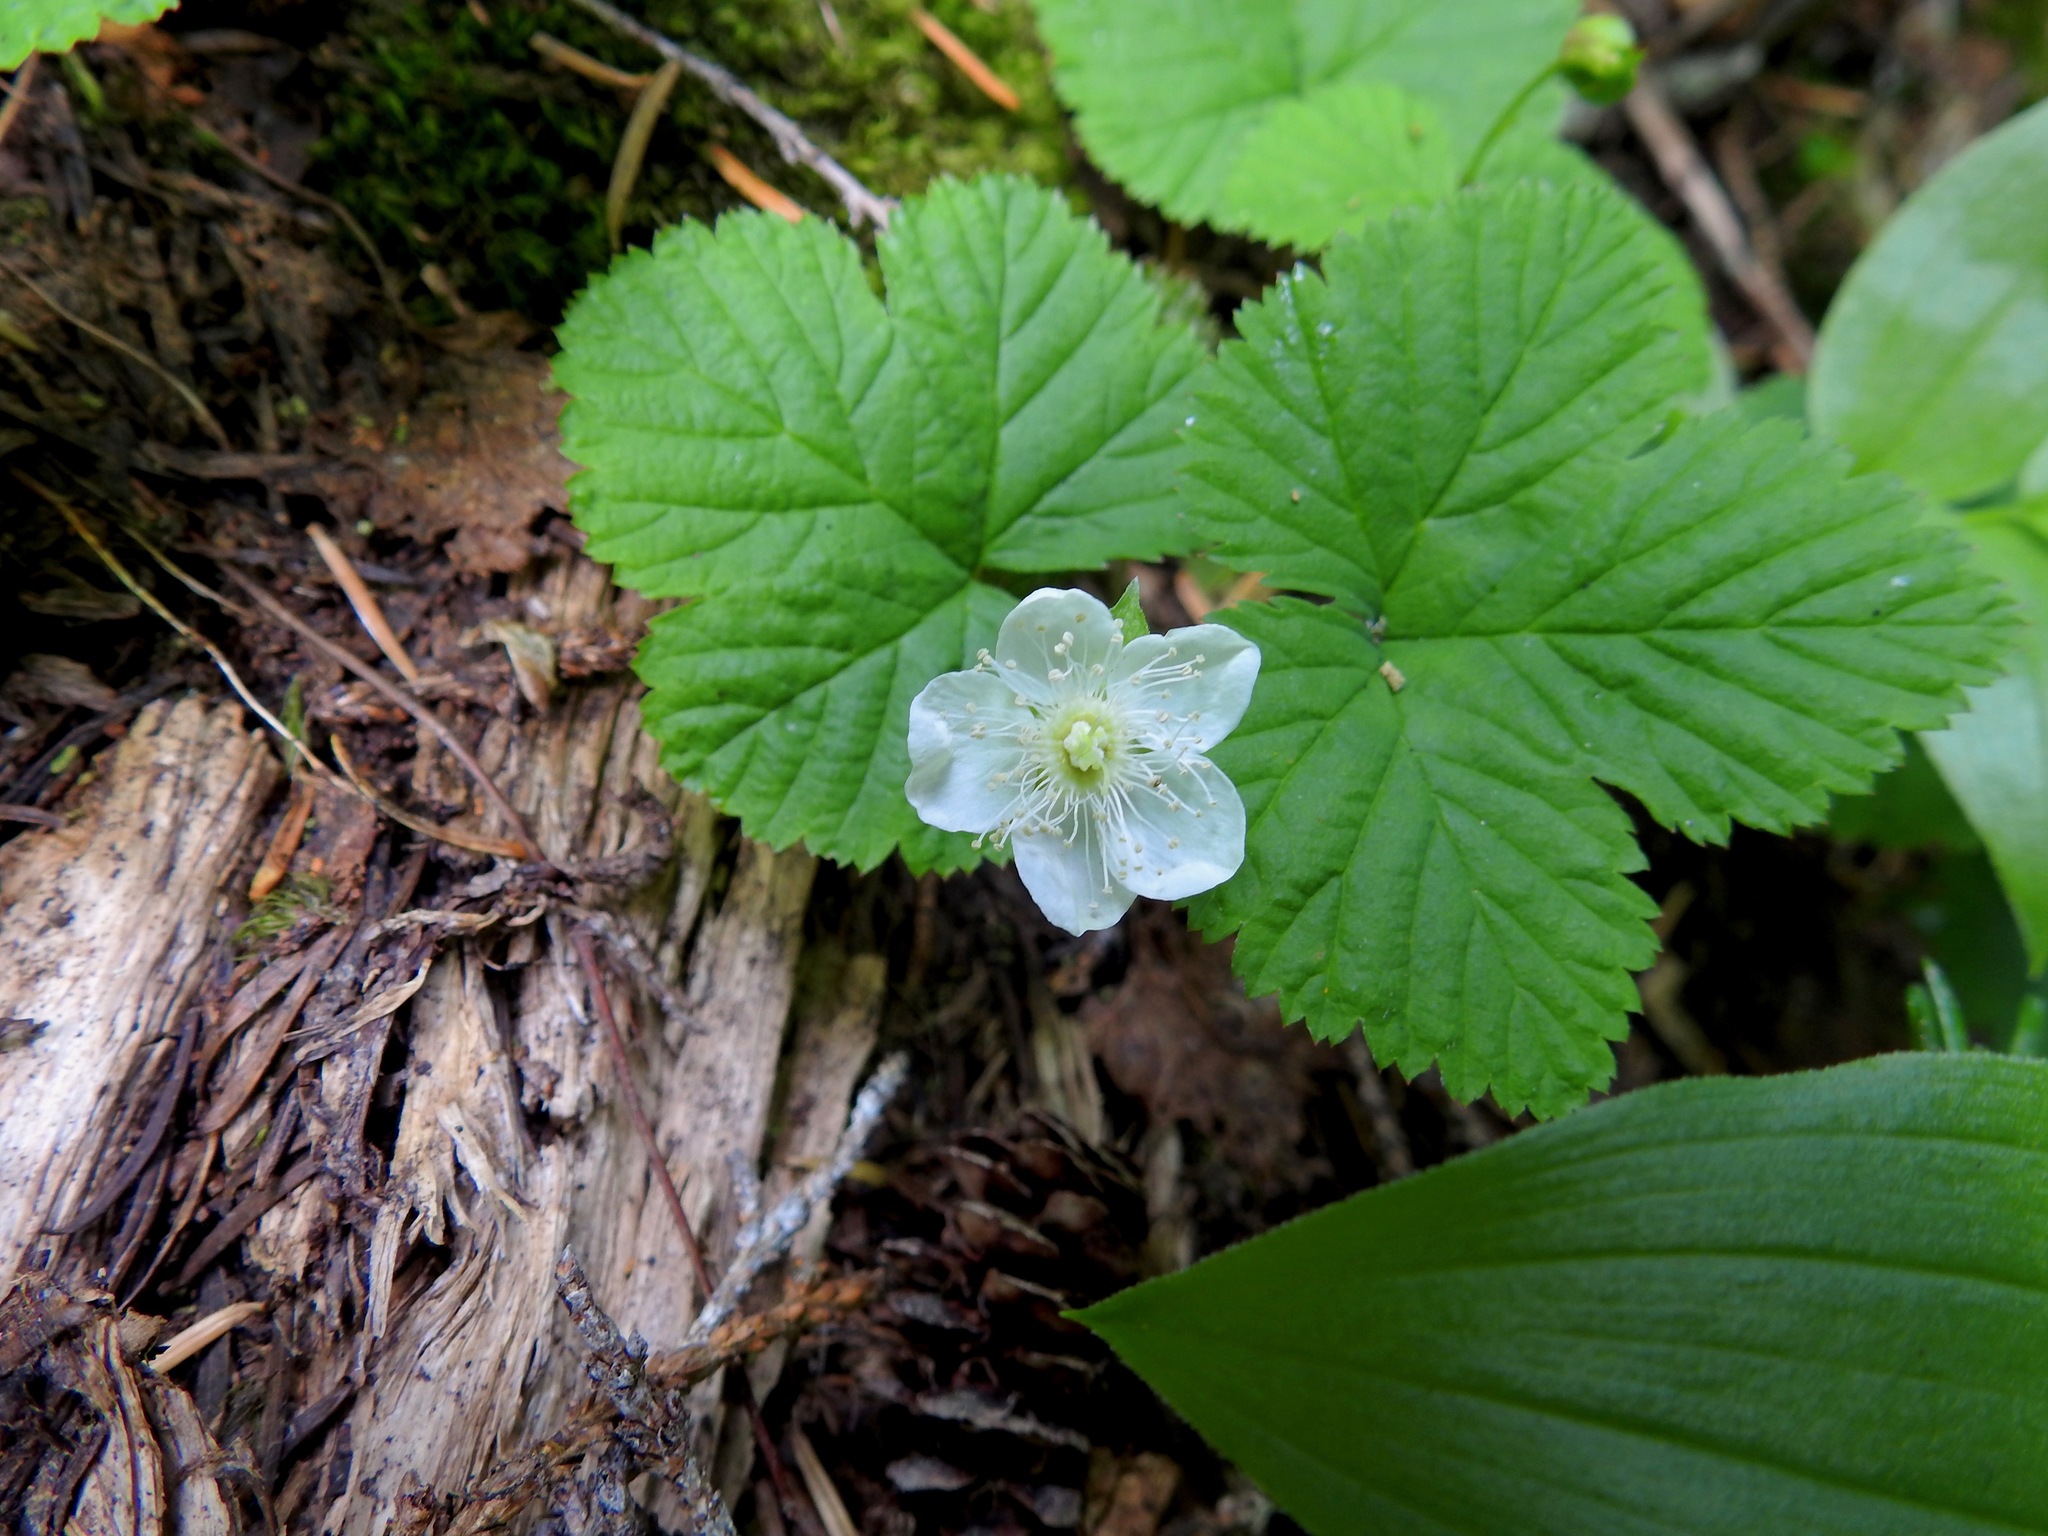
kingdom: Plantae
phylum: Tracheophyta
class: Magnoliopsida
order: Rosales
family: Rosaceae
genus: Rubus
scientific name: Rubus lasiococcus
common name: Dwarf bramble
